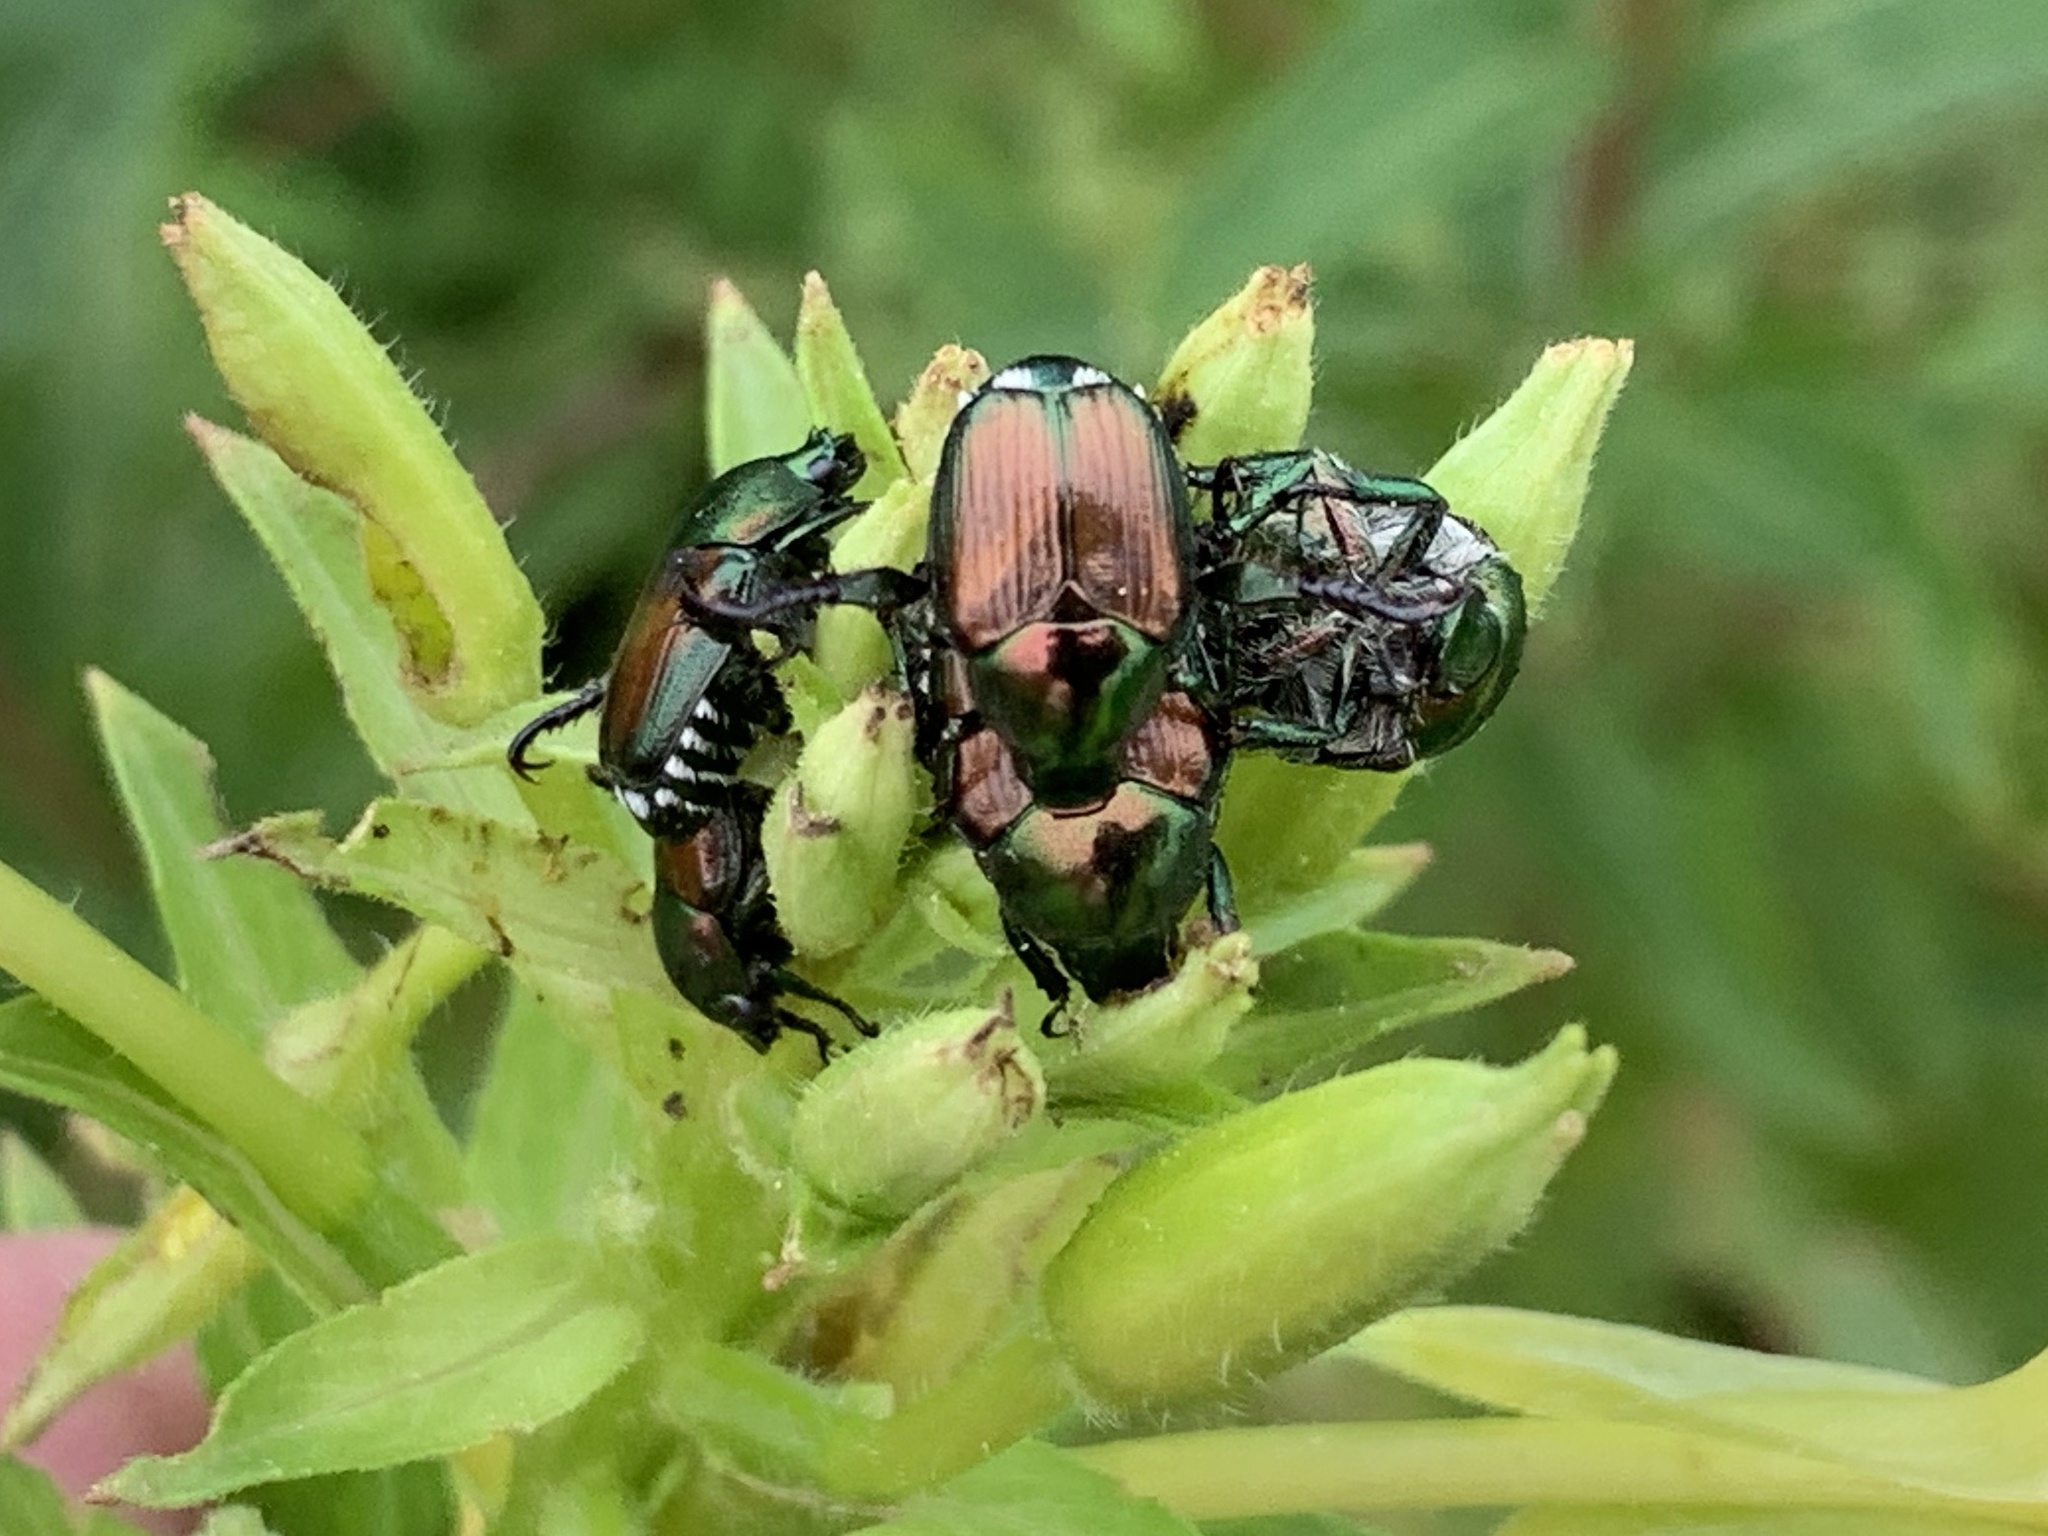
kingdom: Animalia
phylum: Arthropoda
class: Insecta
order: Coleoptera
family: Scarabaeidae
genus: Popillia
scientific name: Popillia japonica
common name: Japanese beetle
